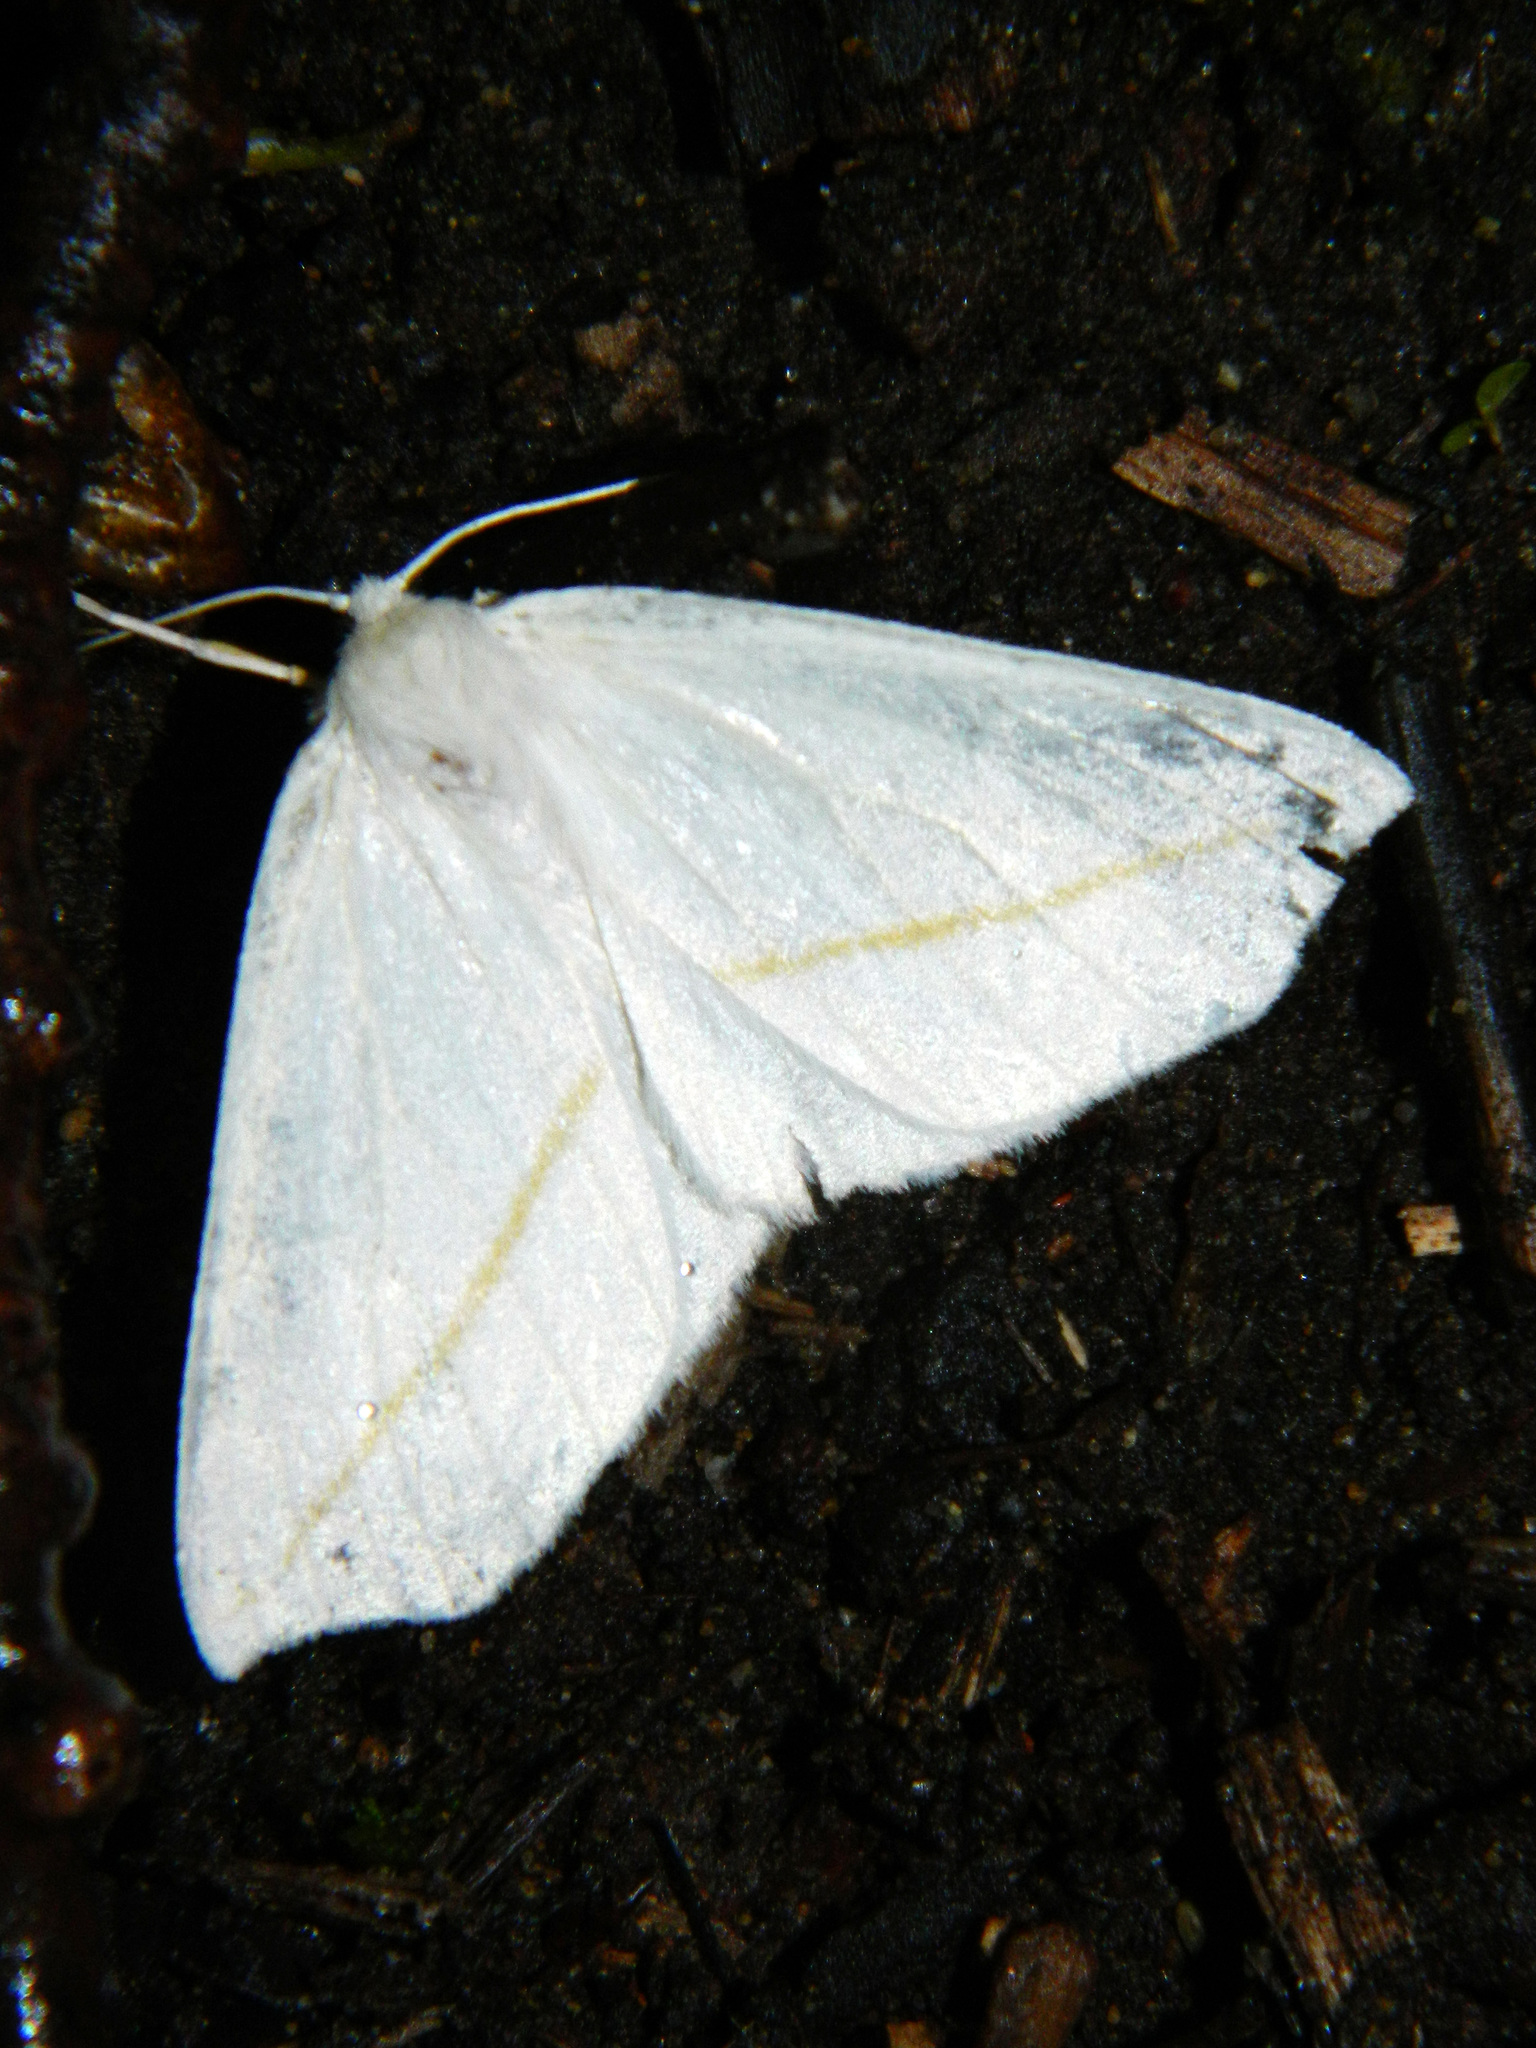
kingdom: Animalia
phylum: Arthropoda
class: Insecta
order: Lepidoptera
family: Geometridae
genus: Tetracis
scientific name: Tetracis cachexiata
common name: White slant-line
